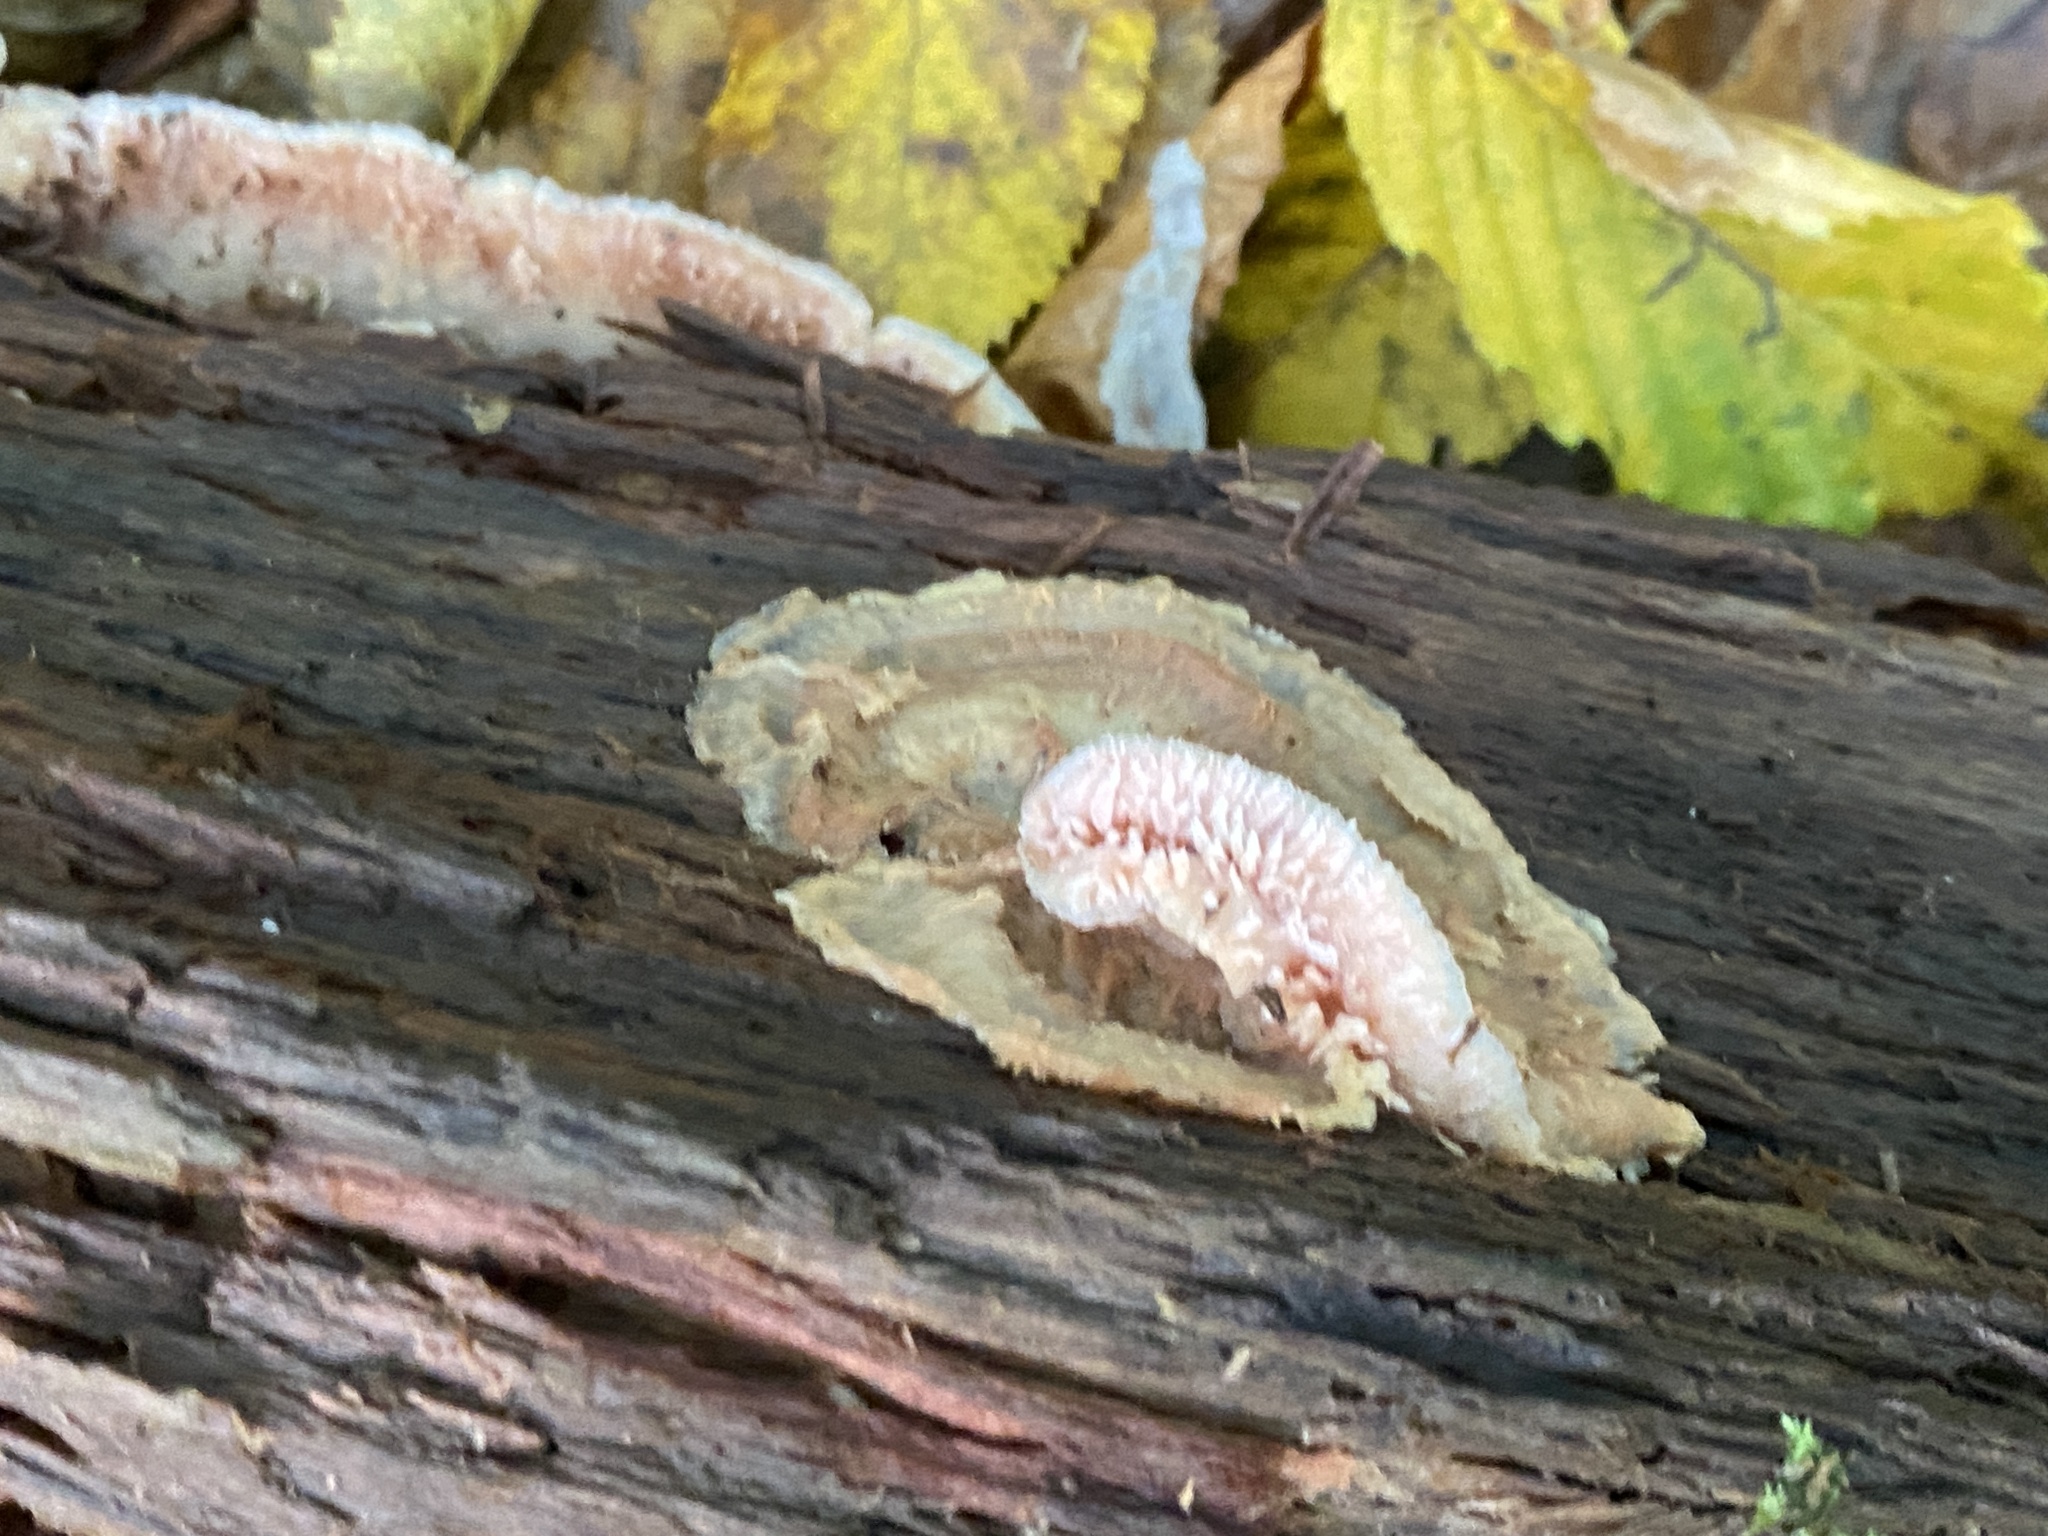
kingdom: Fungi
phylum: Basidiomycota
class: Agaricomycetes
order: Polyporales
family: Meruliaceae
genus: Phlebia
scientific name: Phlebia tremellosa
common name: Jelly rot
